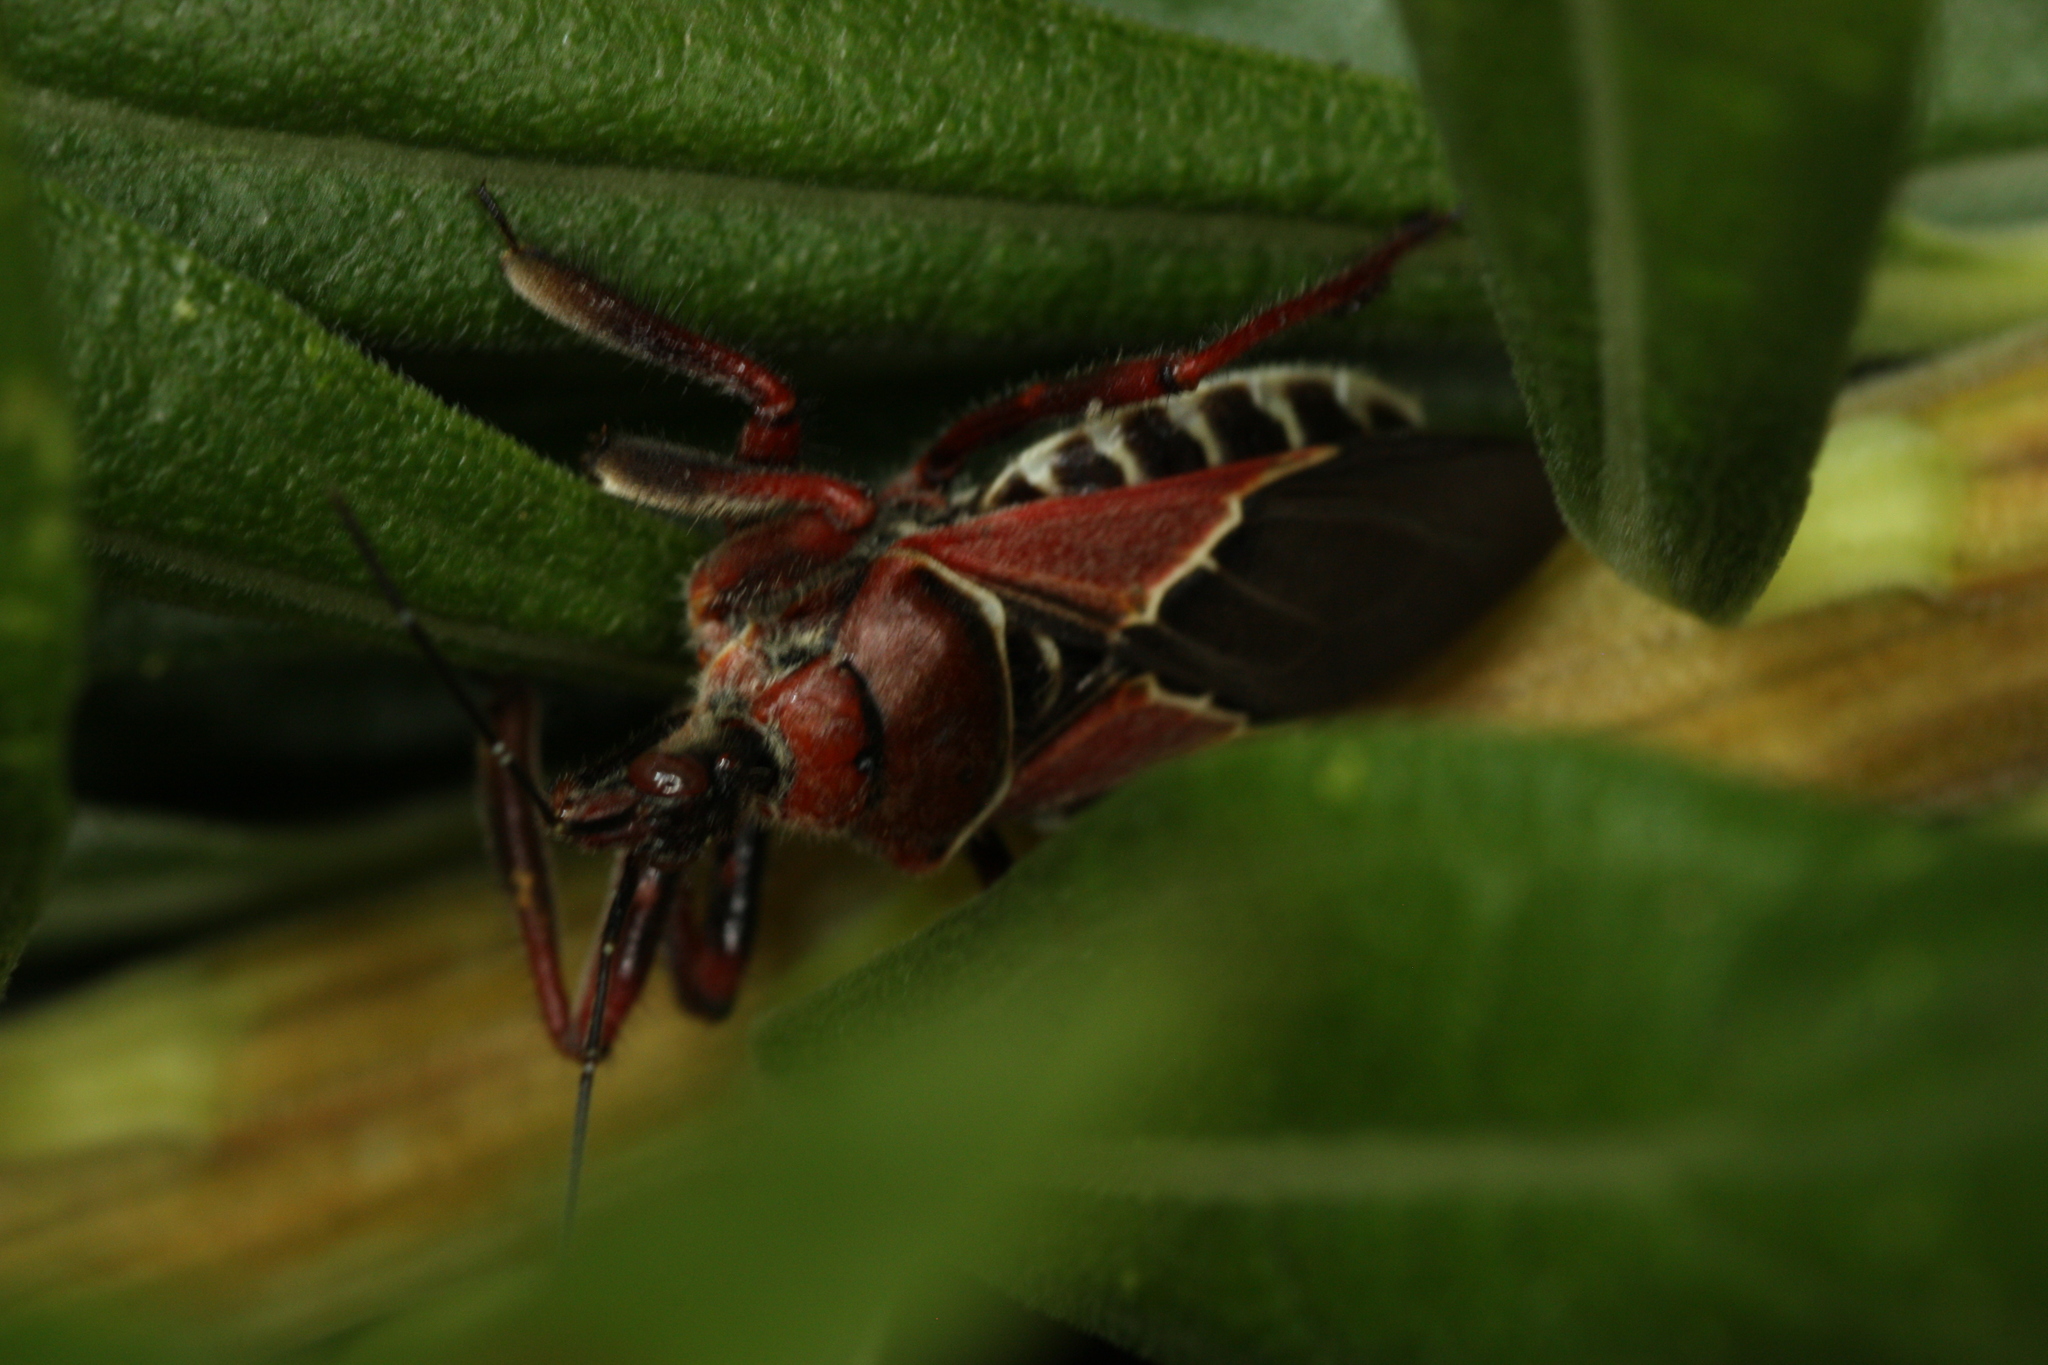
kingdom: Animalia
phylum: Arthropoda
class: Insecta
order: Hemiptera
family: Reduviidae
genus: Apiomerus
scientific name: Apiomerus spissipes
